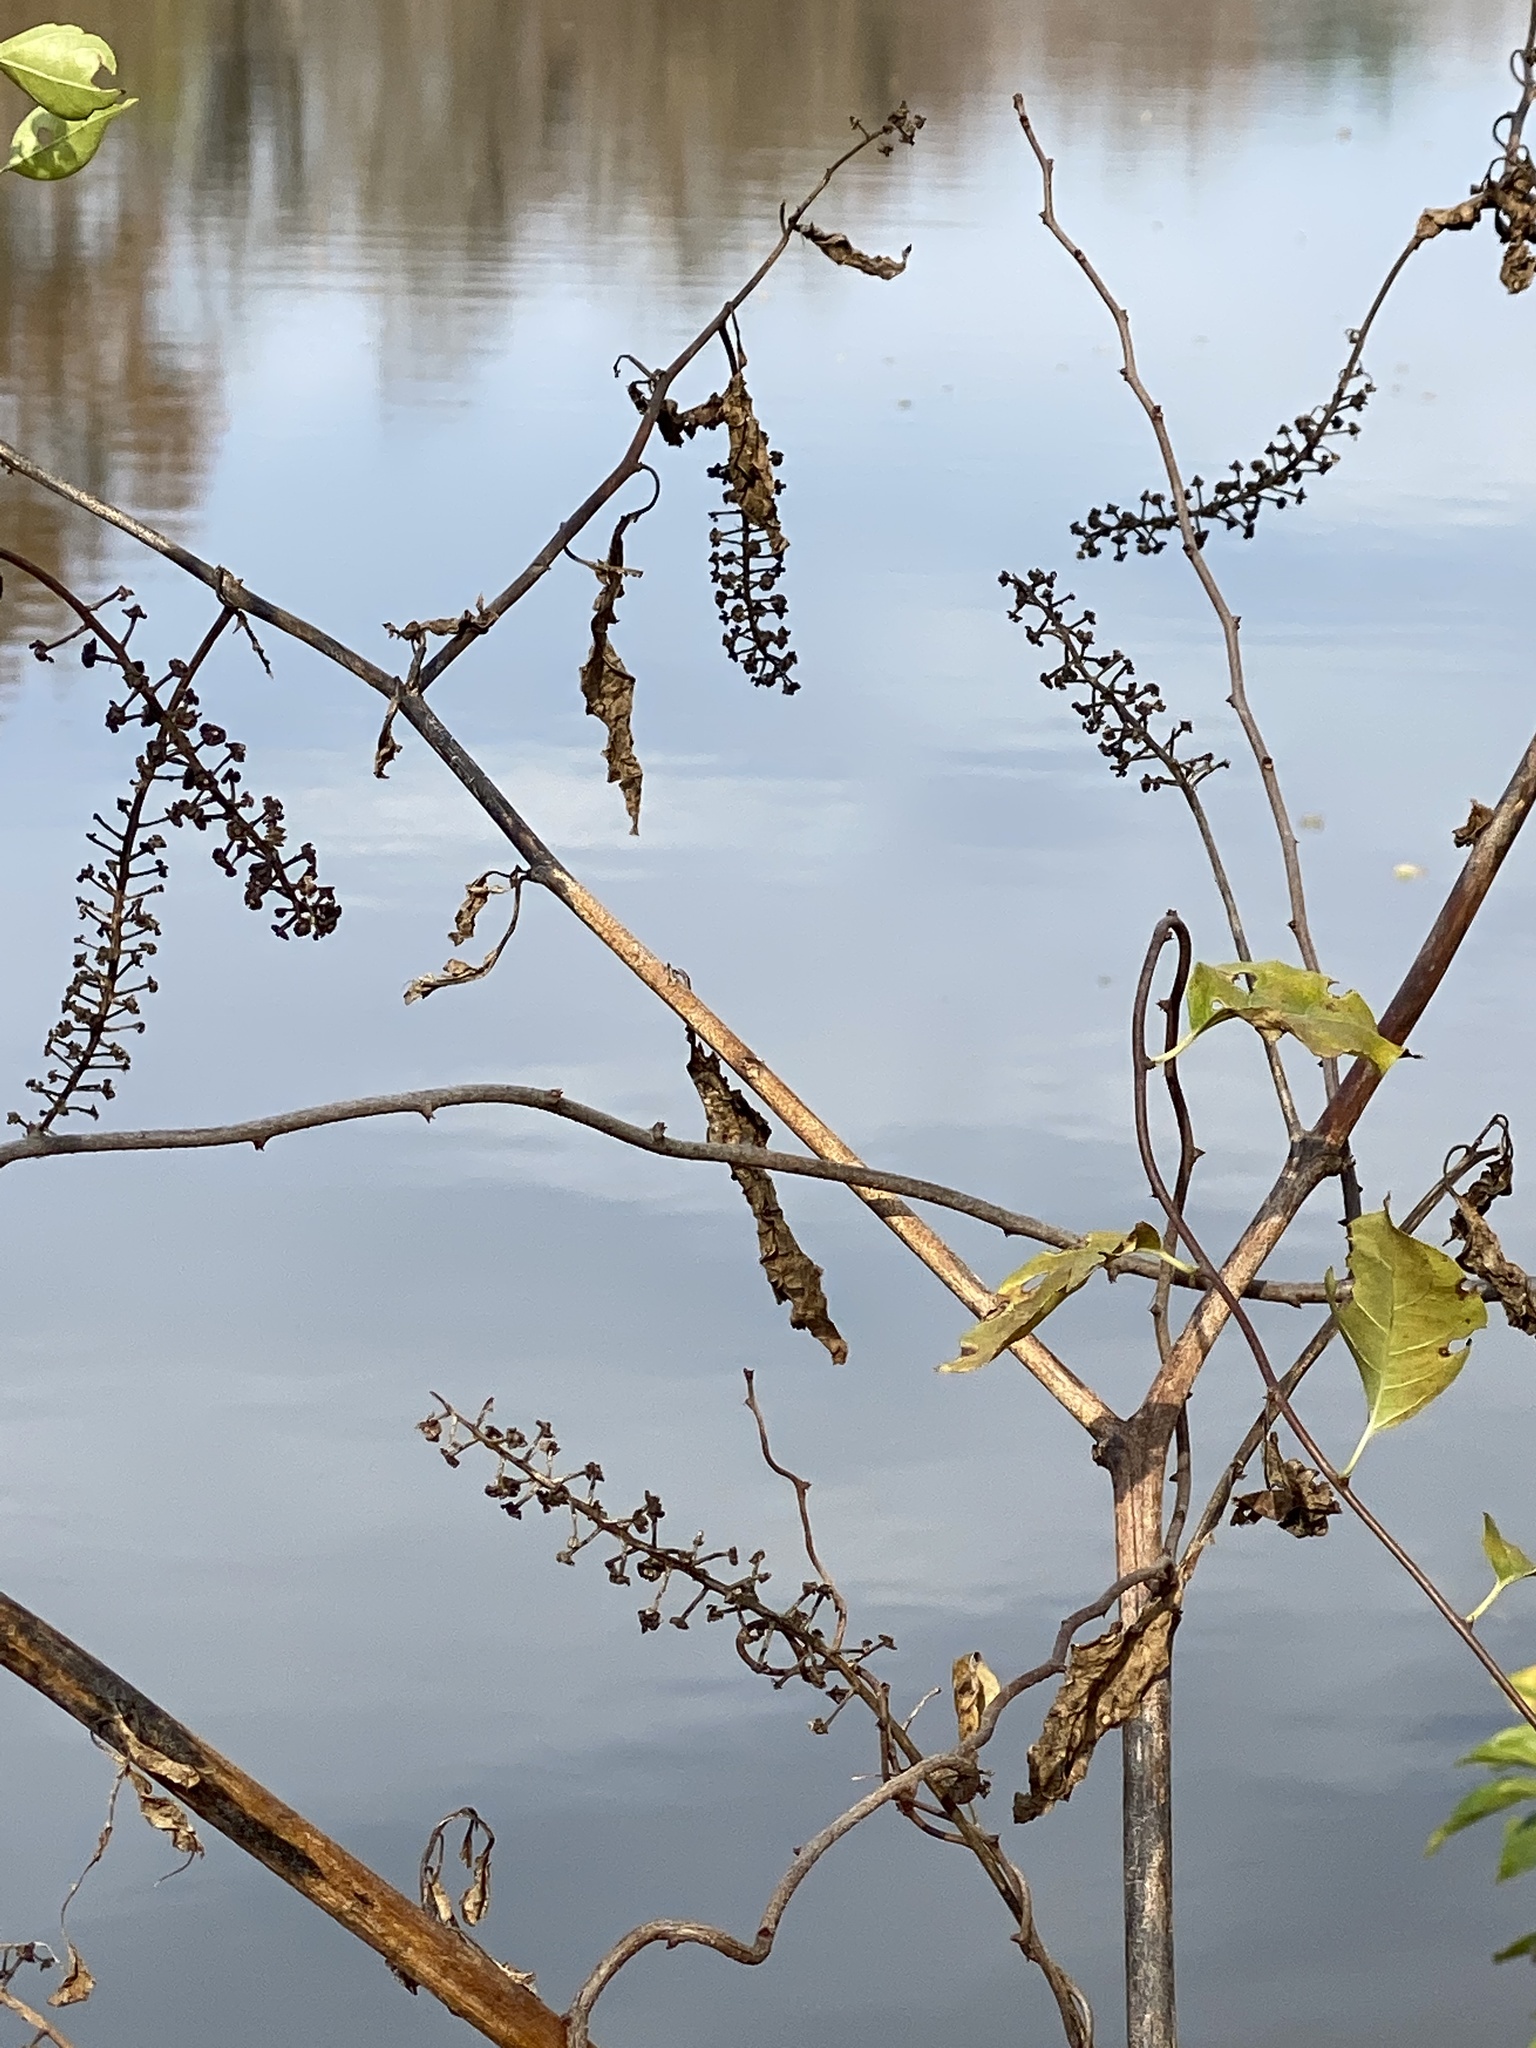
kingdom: Plantae
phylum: Tracheophyta
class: Magnoliopsida
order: Caryophyllales
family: Phytolaccaceae
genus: Phytolacca
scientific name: Phytolacca americana
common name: American pokeweed
